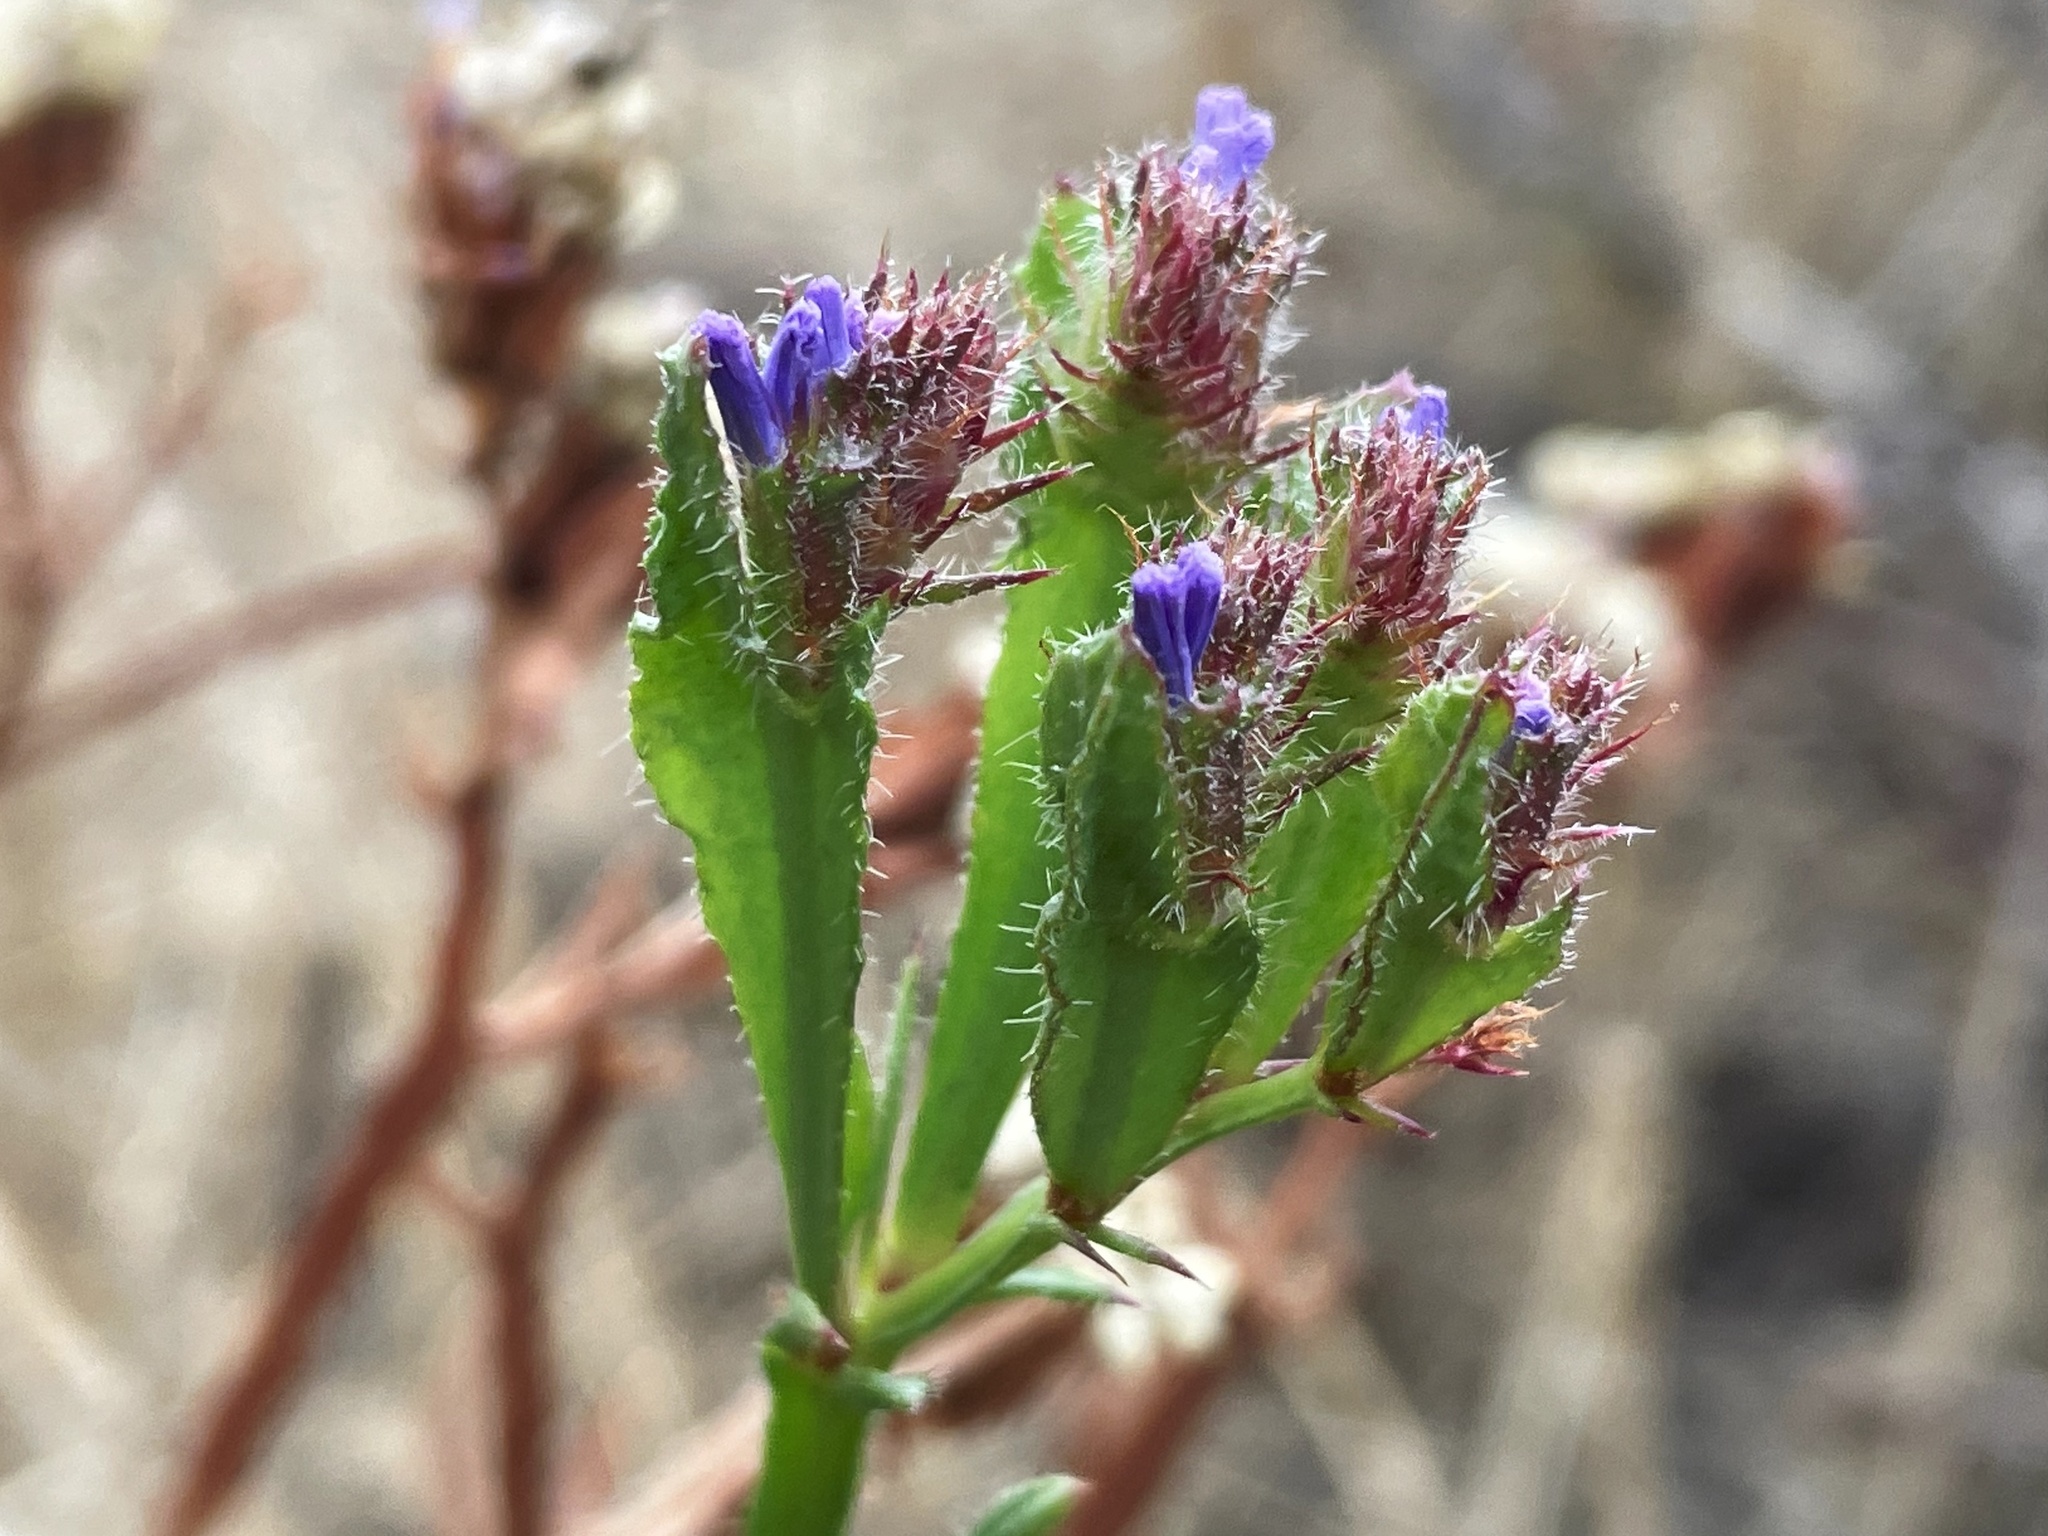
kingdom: Plantae
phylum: Tracheophyta
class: Magnoliopsida
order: Caryophyllales
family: Plumbaginaceae
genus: Limonium
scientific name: Limonium sinuatum
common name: Statice
